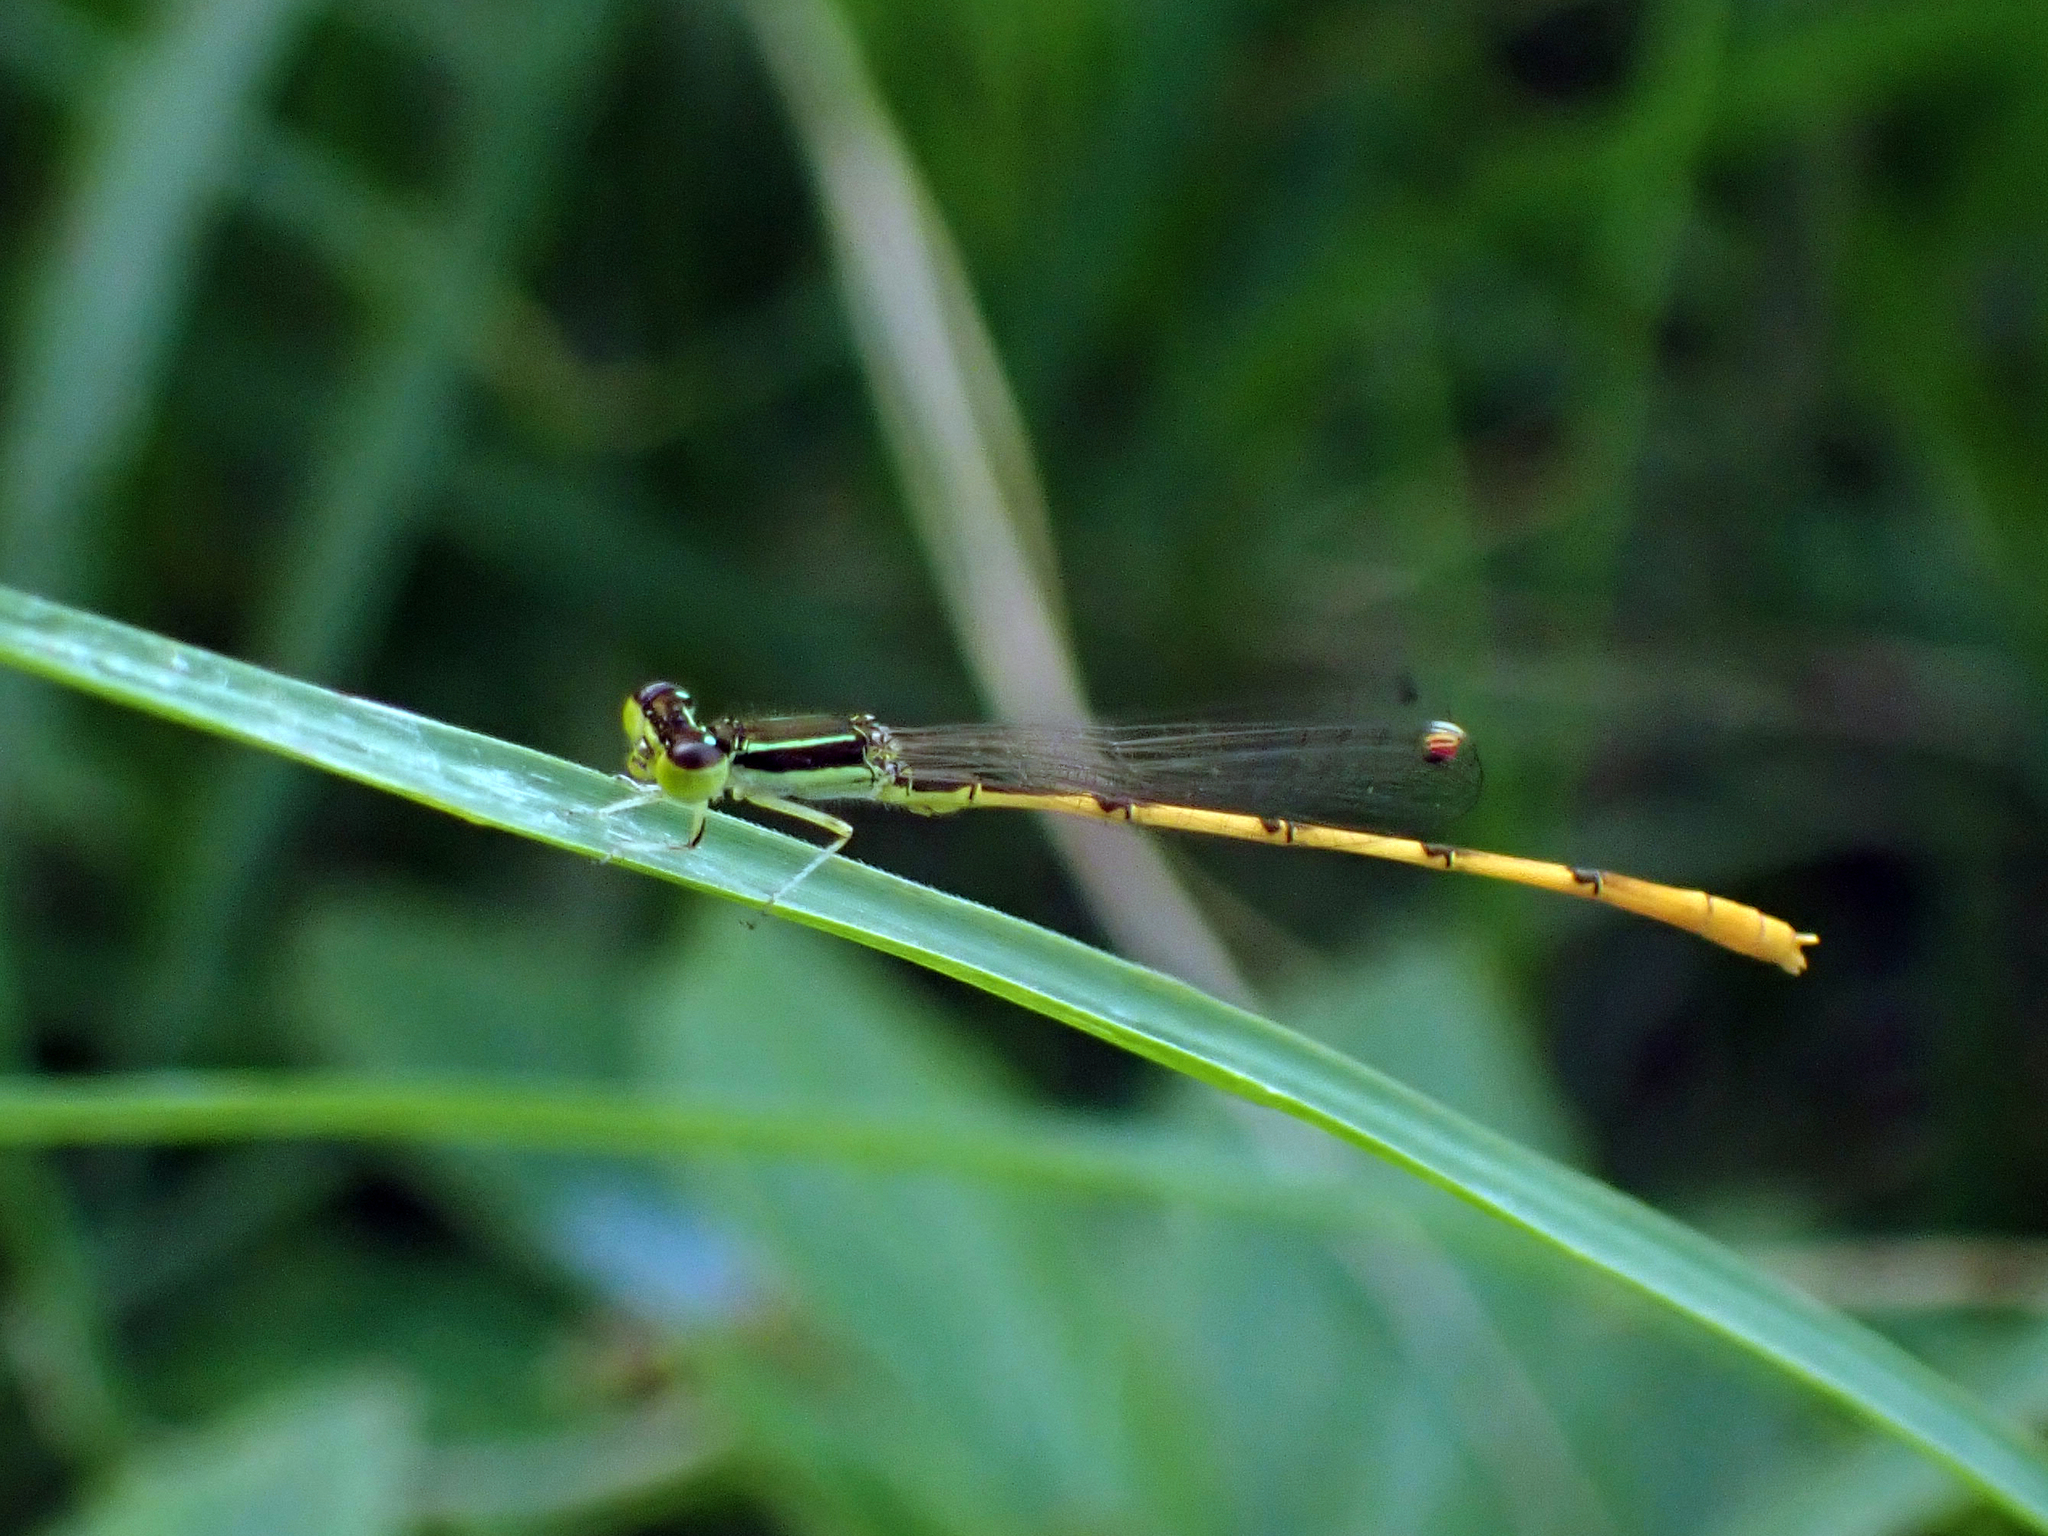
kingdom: Animalia
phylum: Arthropoda
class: Insecta
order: Odonata
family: Coenagrionidae
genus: Ischnura
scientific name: Ischnura hastata
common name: Citrine forktail
